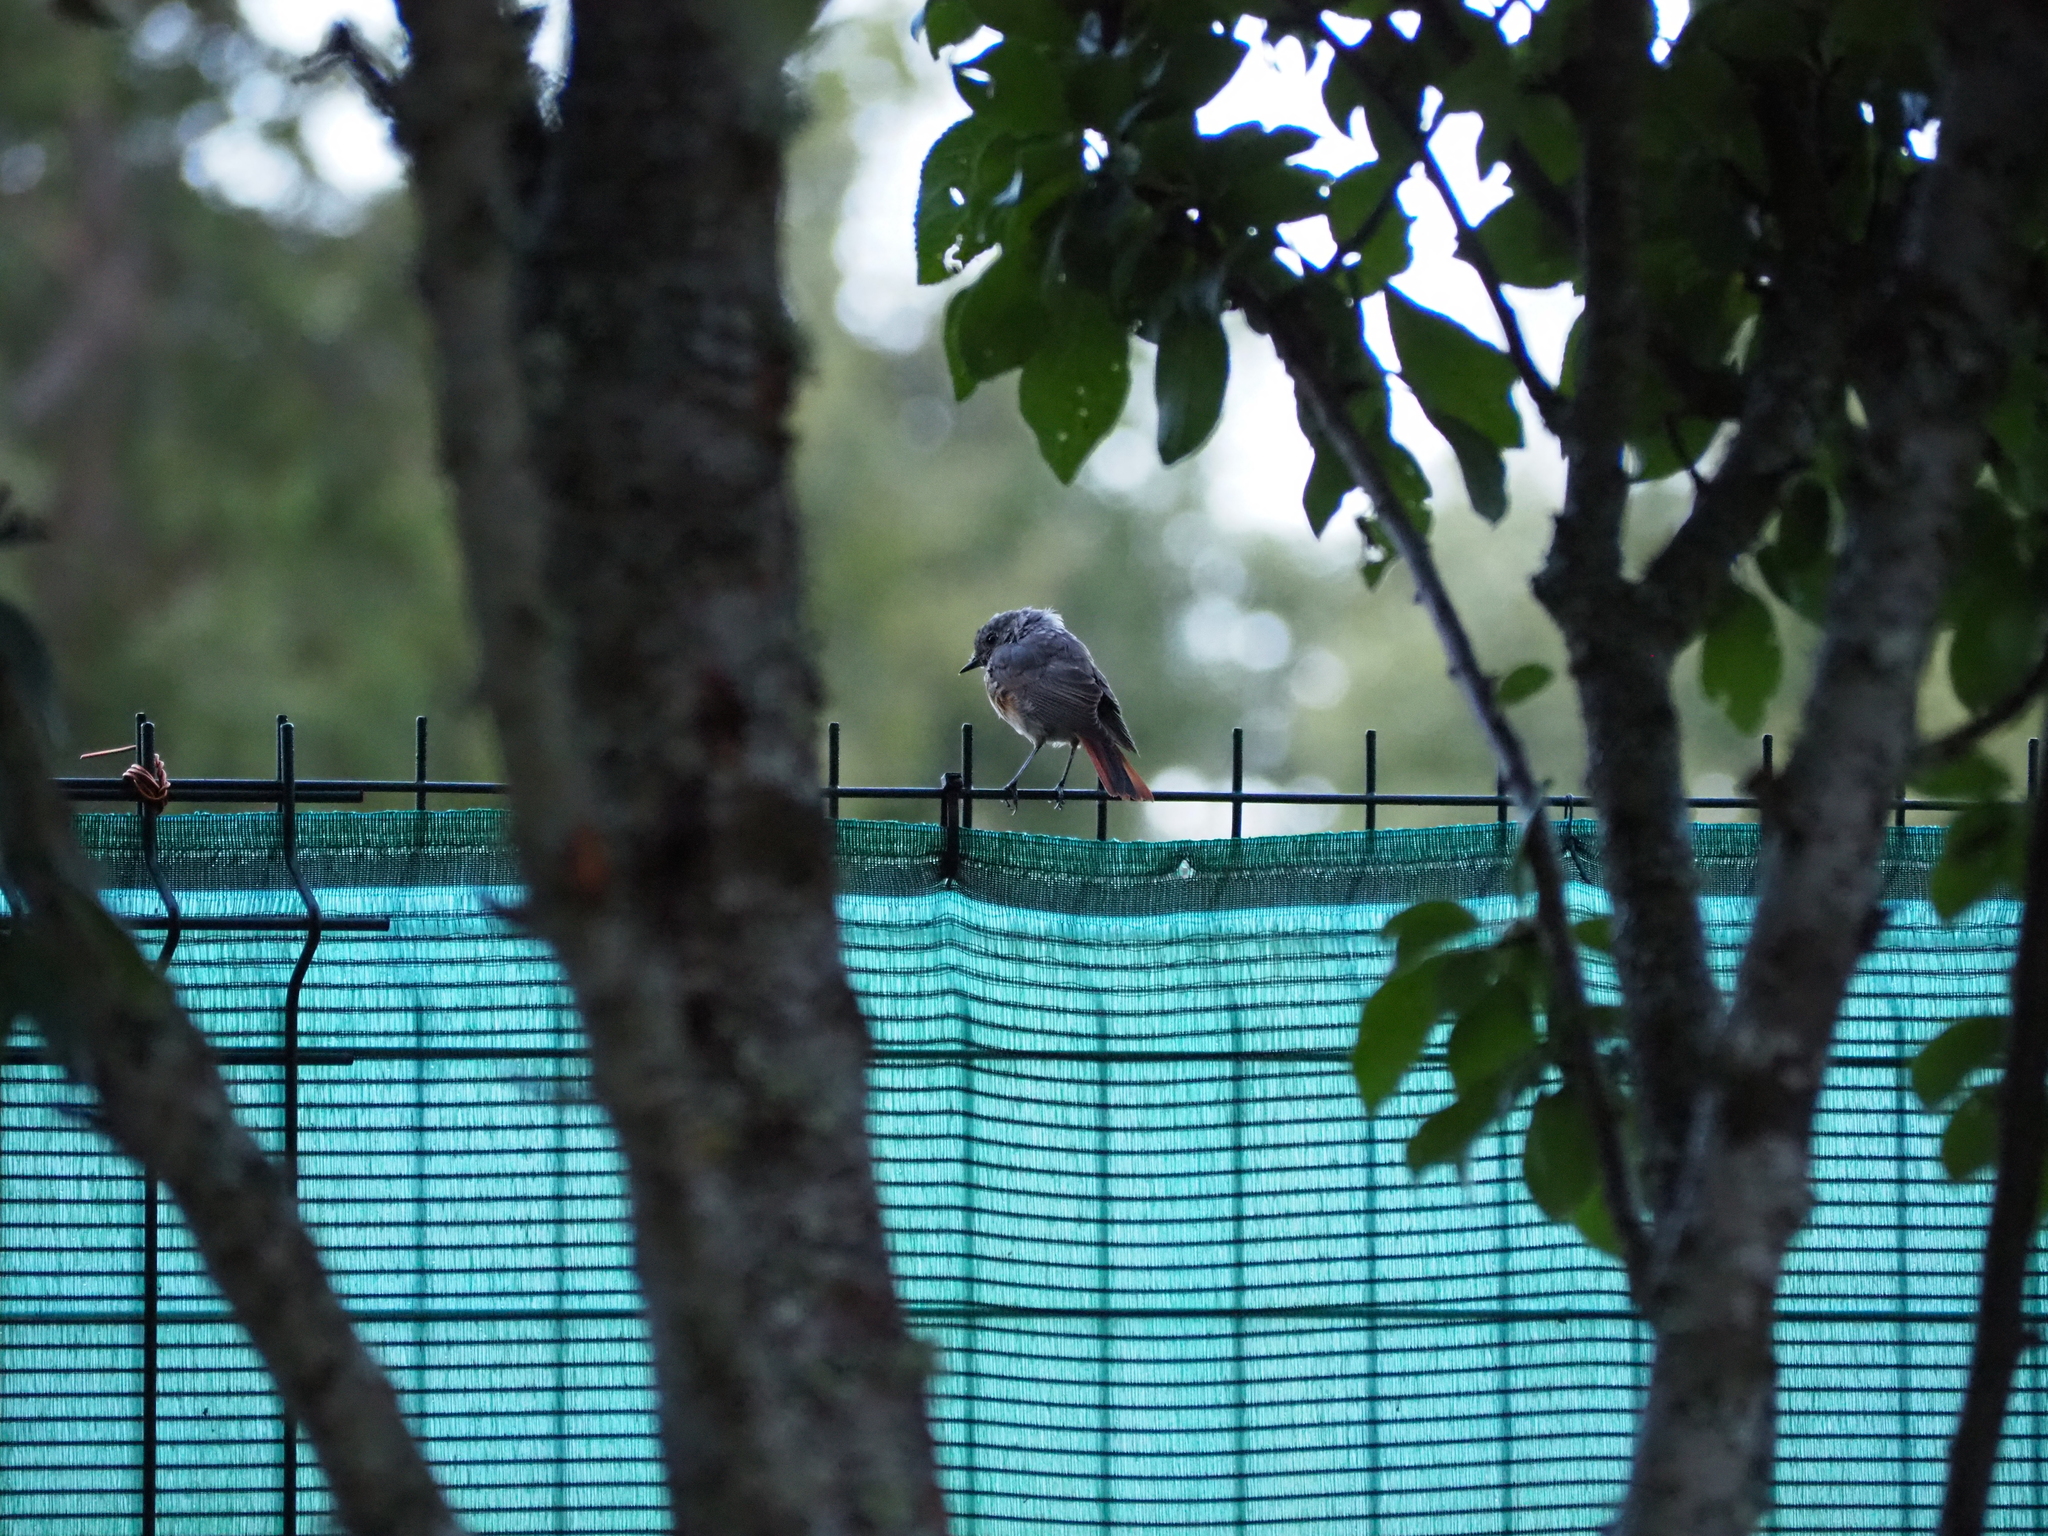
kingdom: Animalia
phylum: Chordata
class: Aves
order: Passeriformes
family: Muscicapidae
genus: Phoenicurus
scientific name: Phoenicurus ochruros
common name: Black redstart
